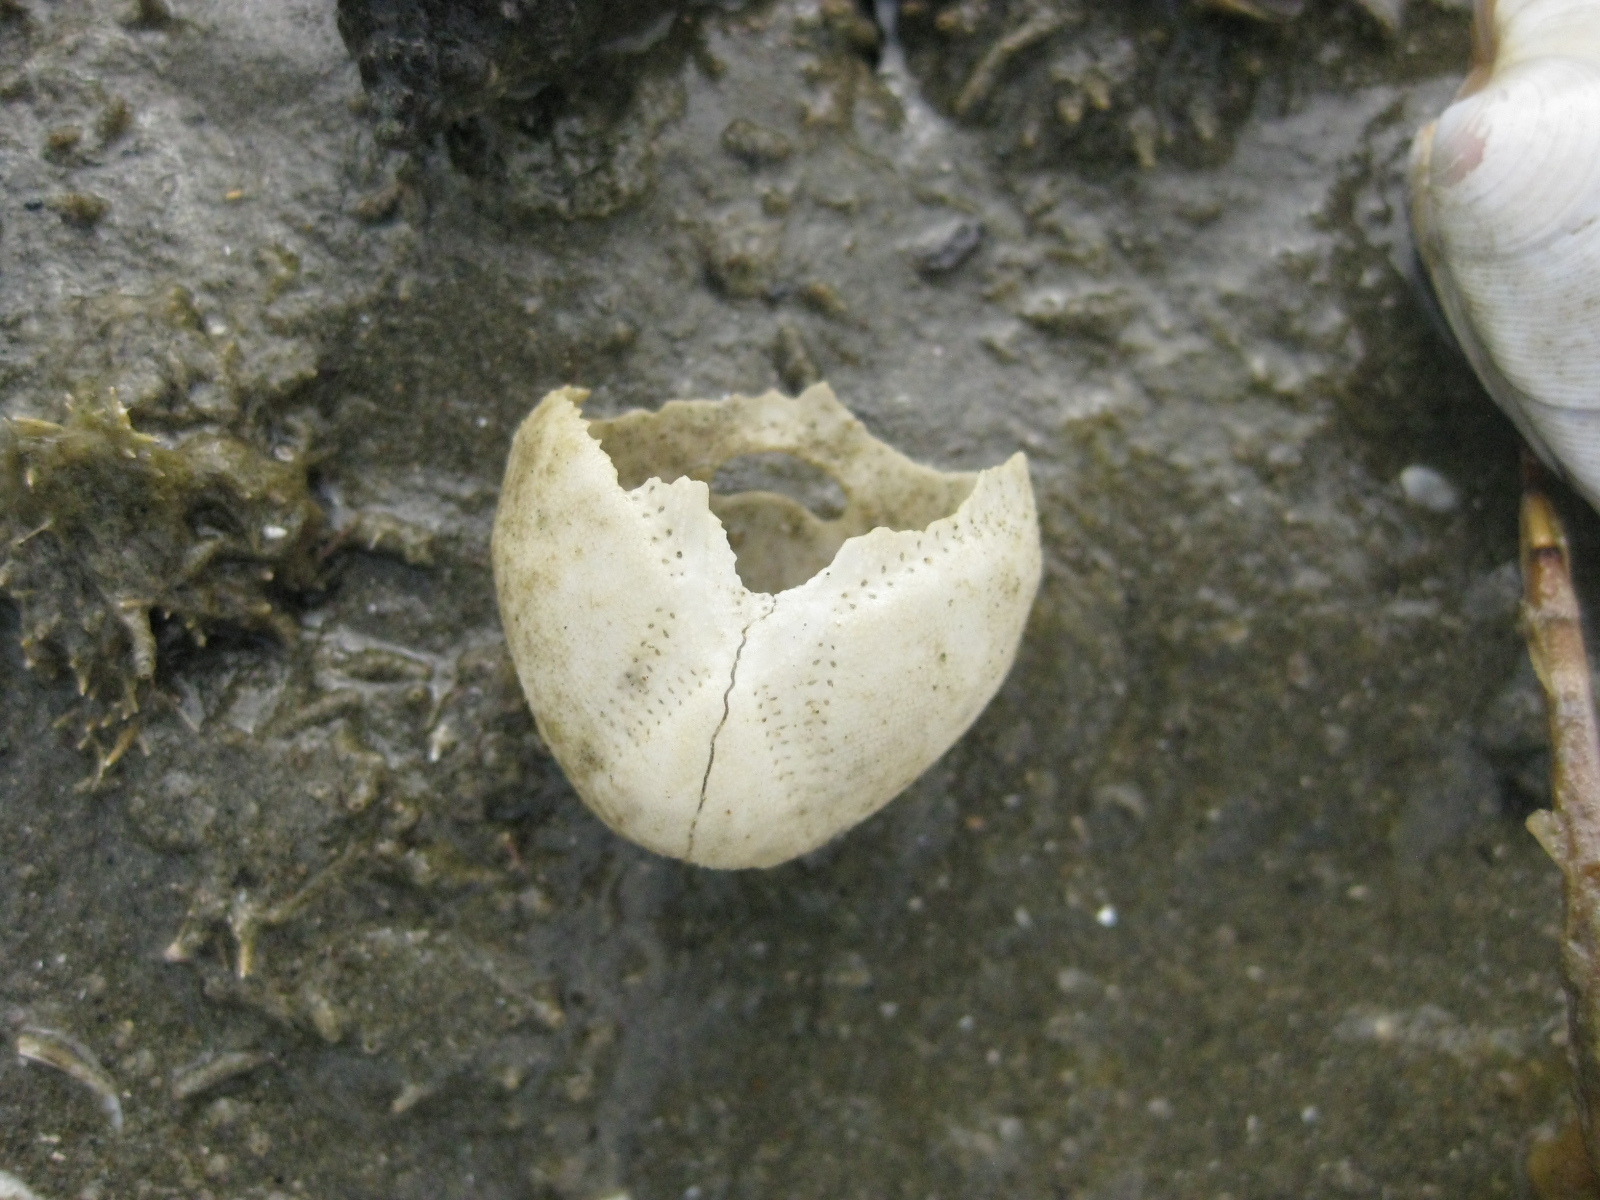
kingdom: Animalia
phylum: Echinodermata
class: Echinoidea
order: Spatangoida
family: Loveniidae
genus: Echinocardium
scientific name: Echinocardium cordatum
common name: Heart-urchin
